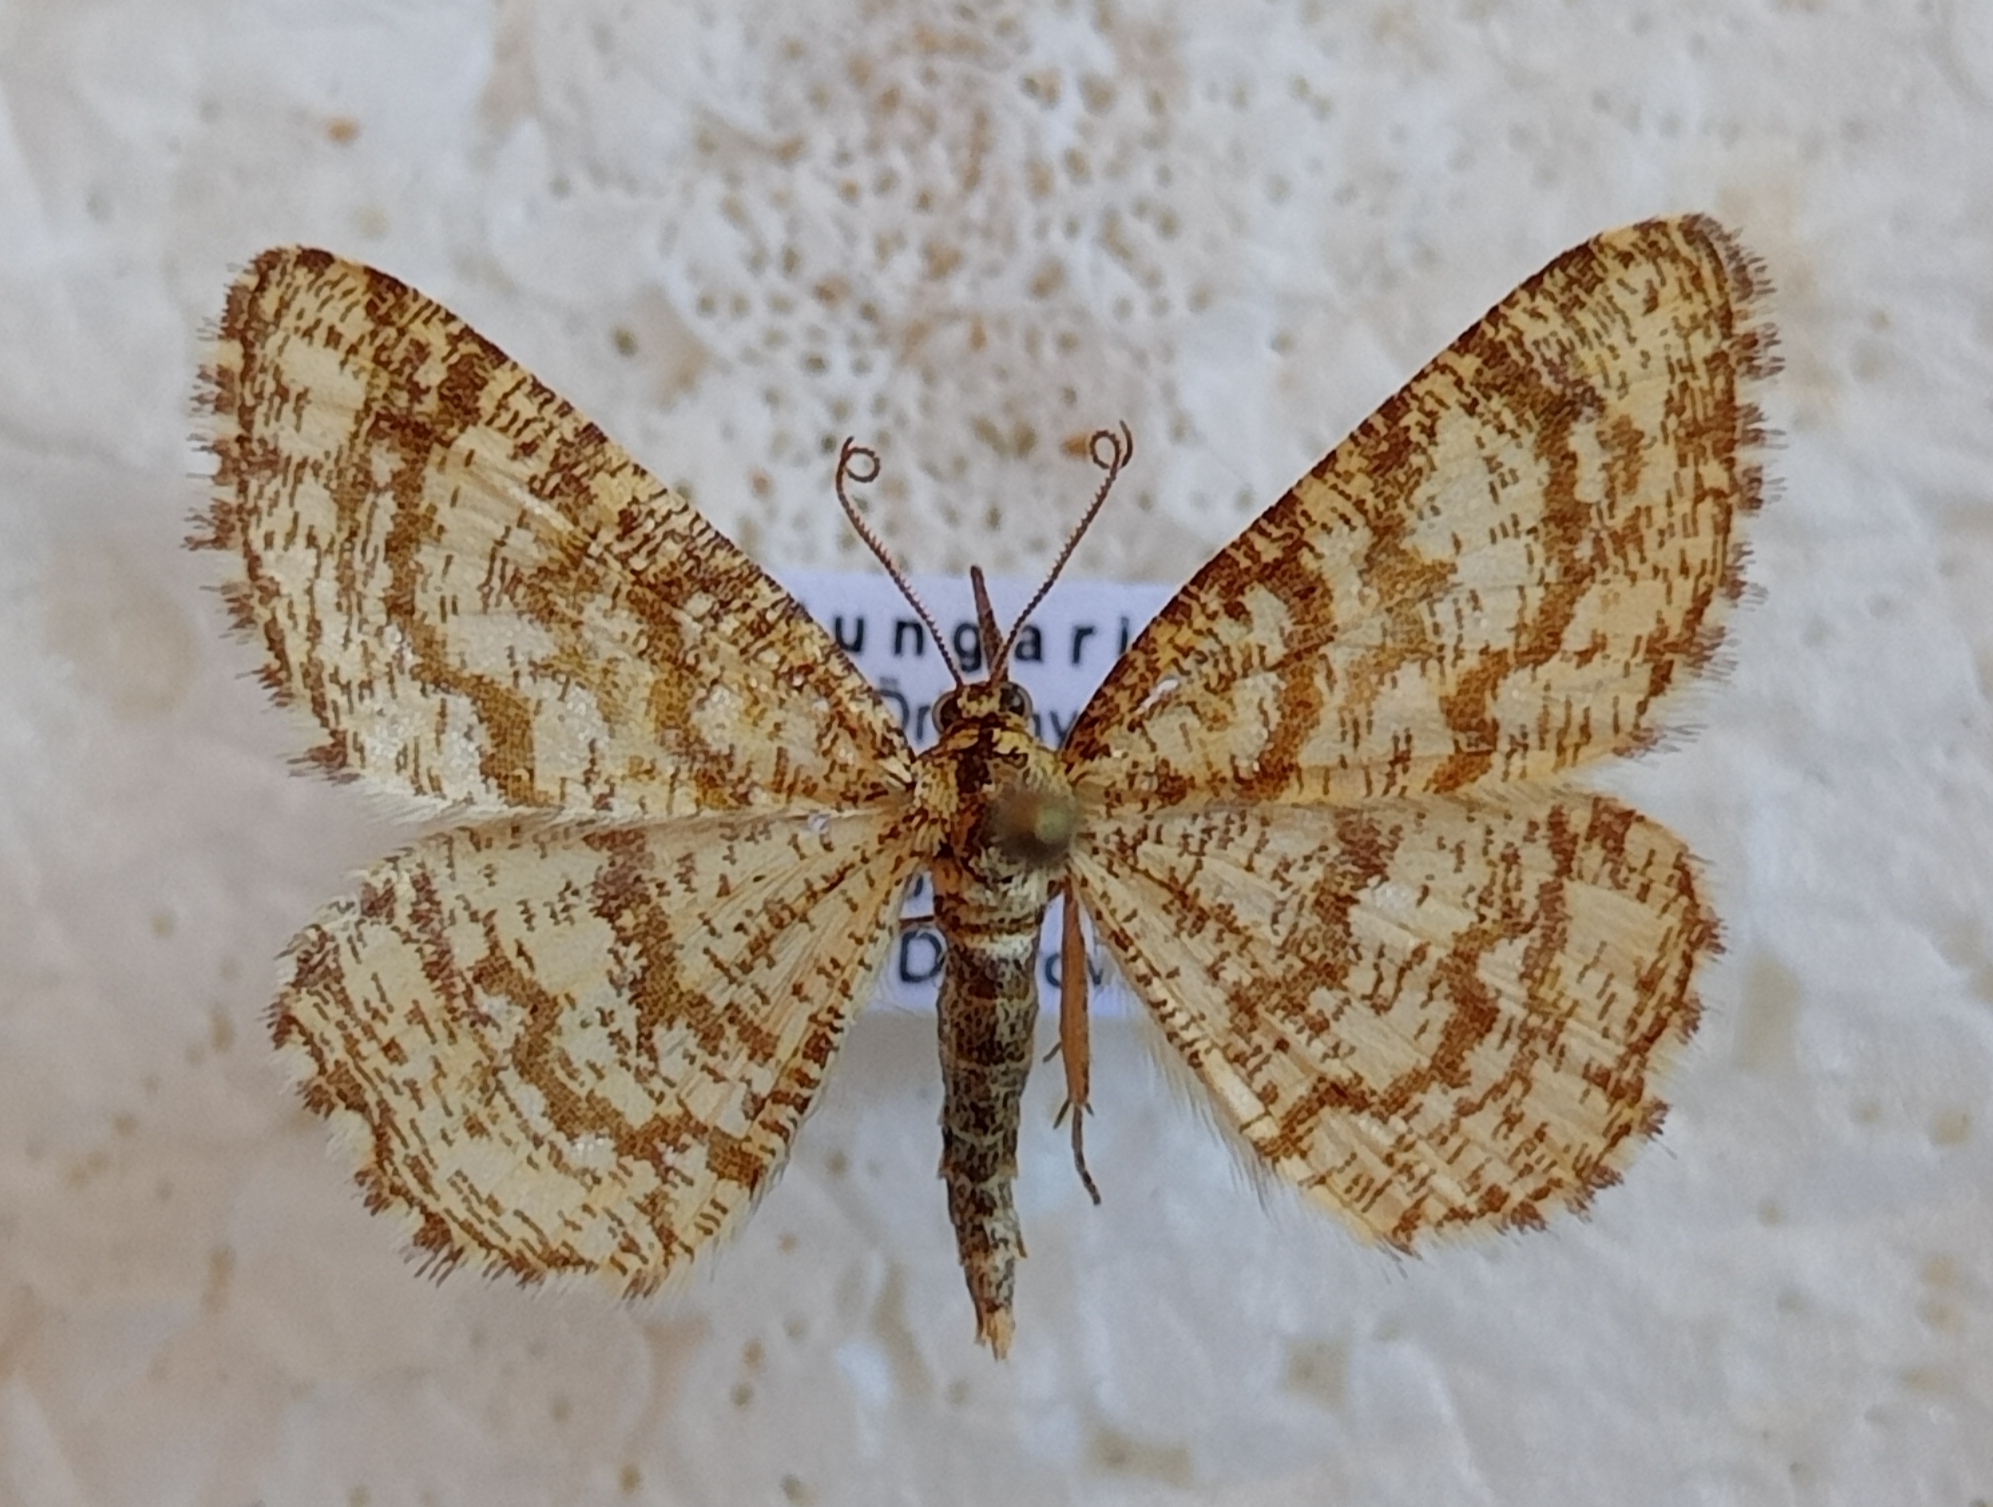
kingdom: Animalia
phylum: Arthropoda
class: Insecta
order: Lepidoptera
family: Geometridae
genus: Heliomata
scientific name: Heliomata glarearia
